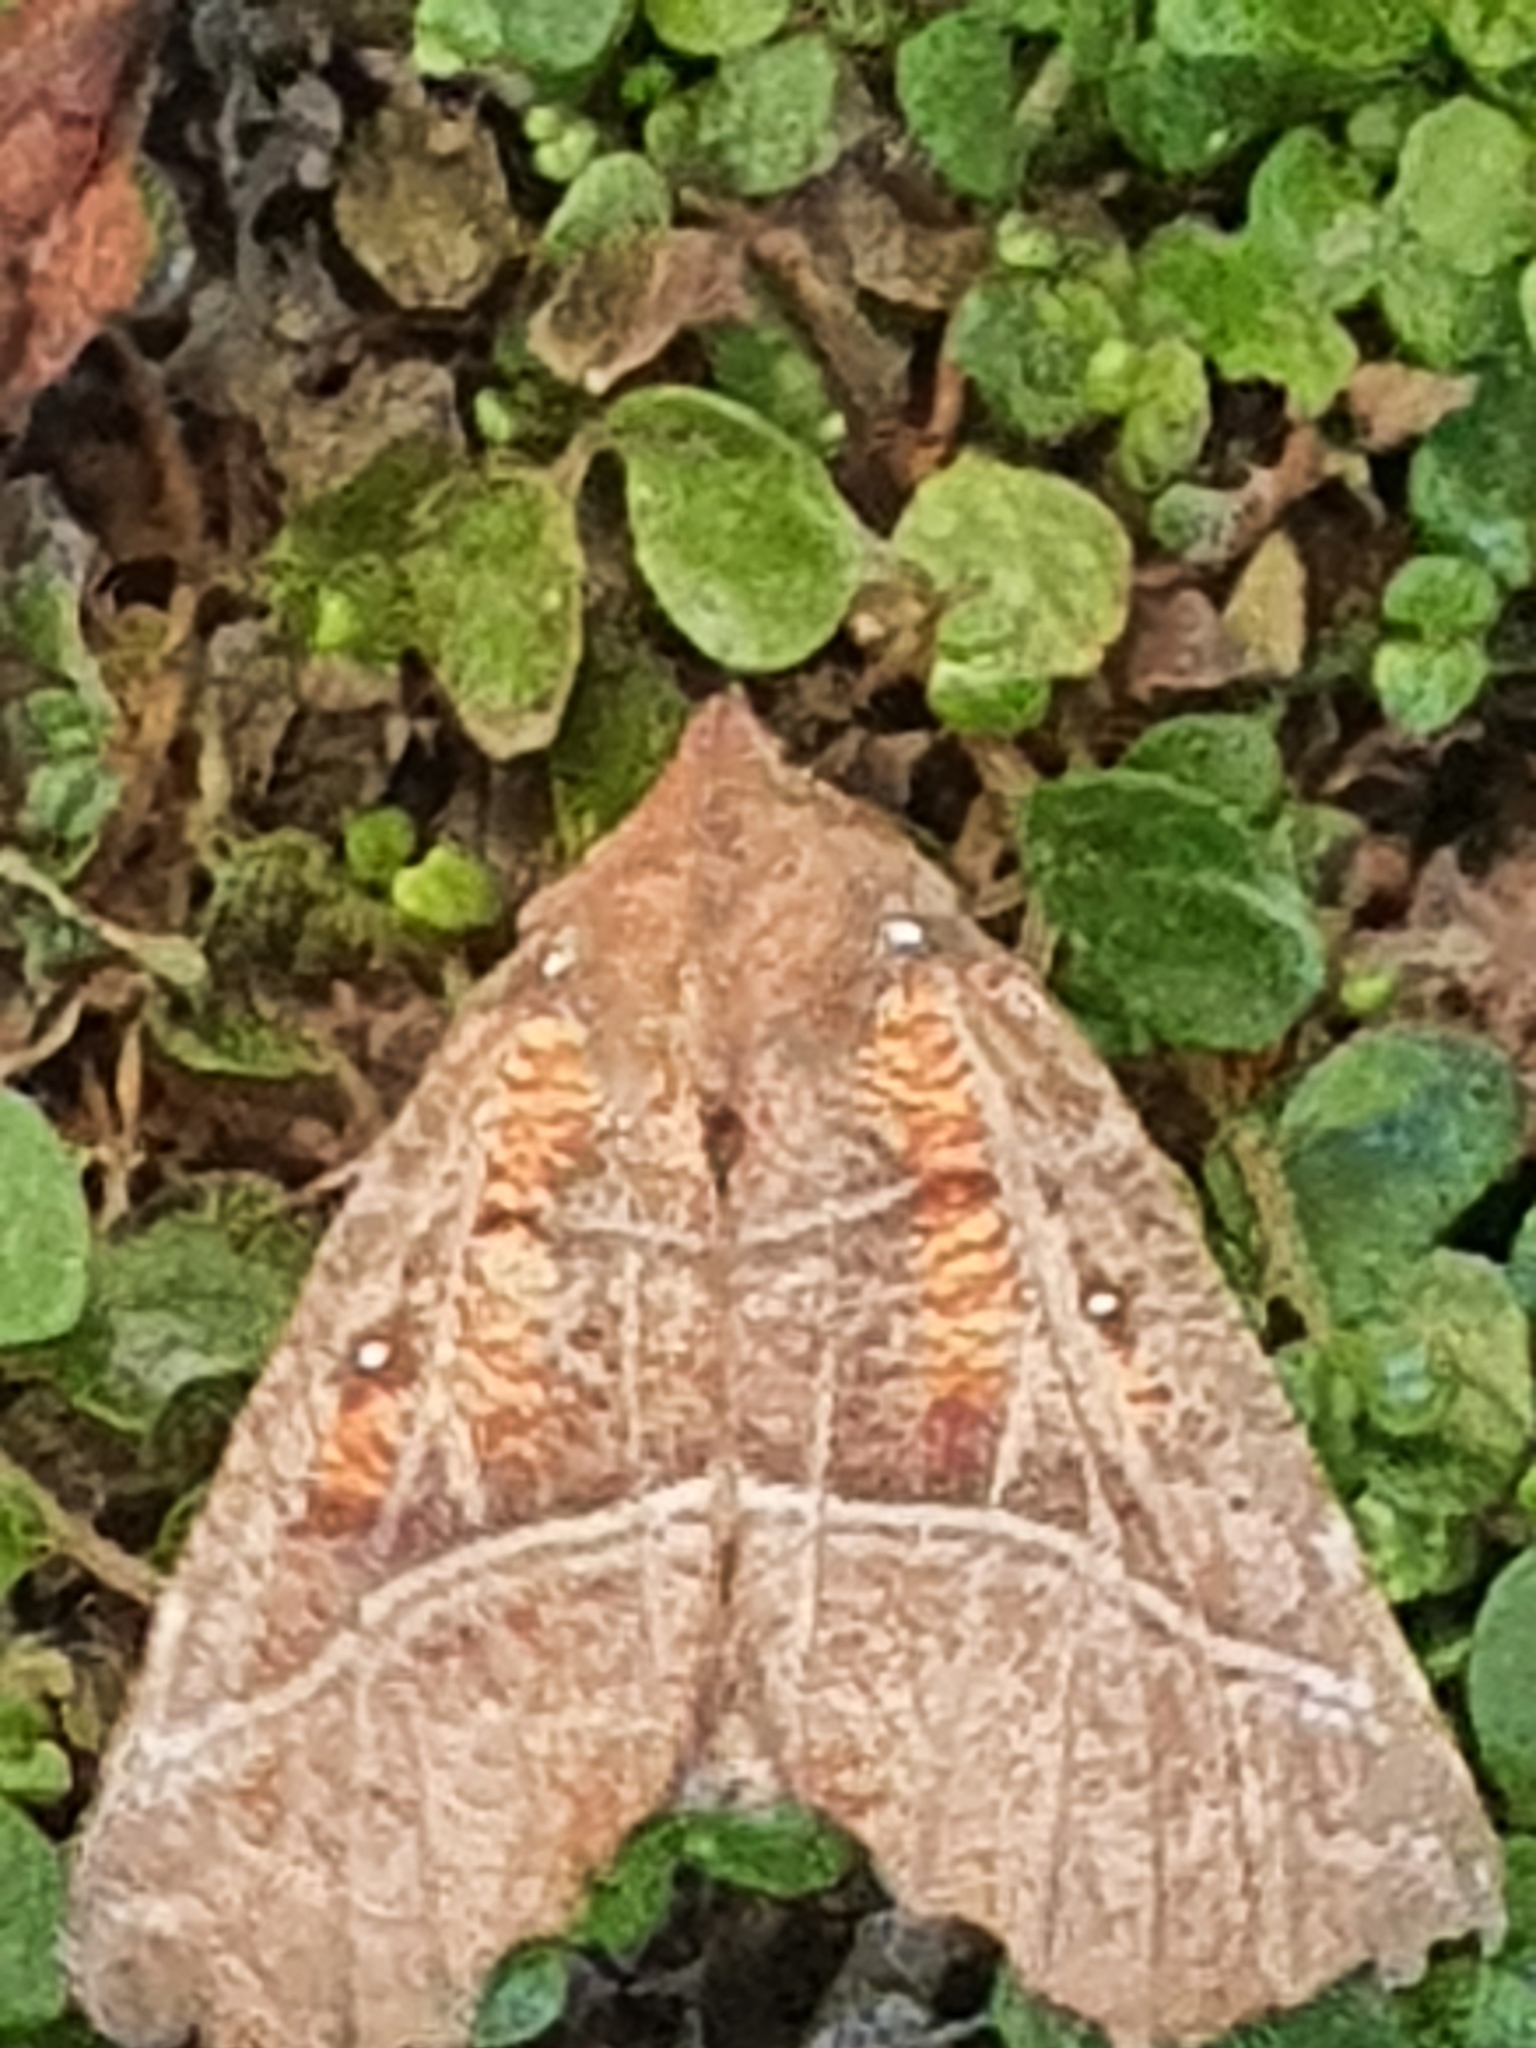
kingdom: Animalia
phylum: Arthropoda
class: Insecta
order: Lepidoptera
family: Erebidae
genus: Scoliopteryx
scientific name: Scoliopteryx libatrix
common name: Herald
